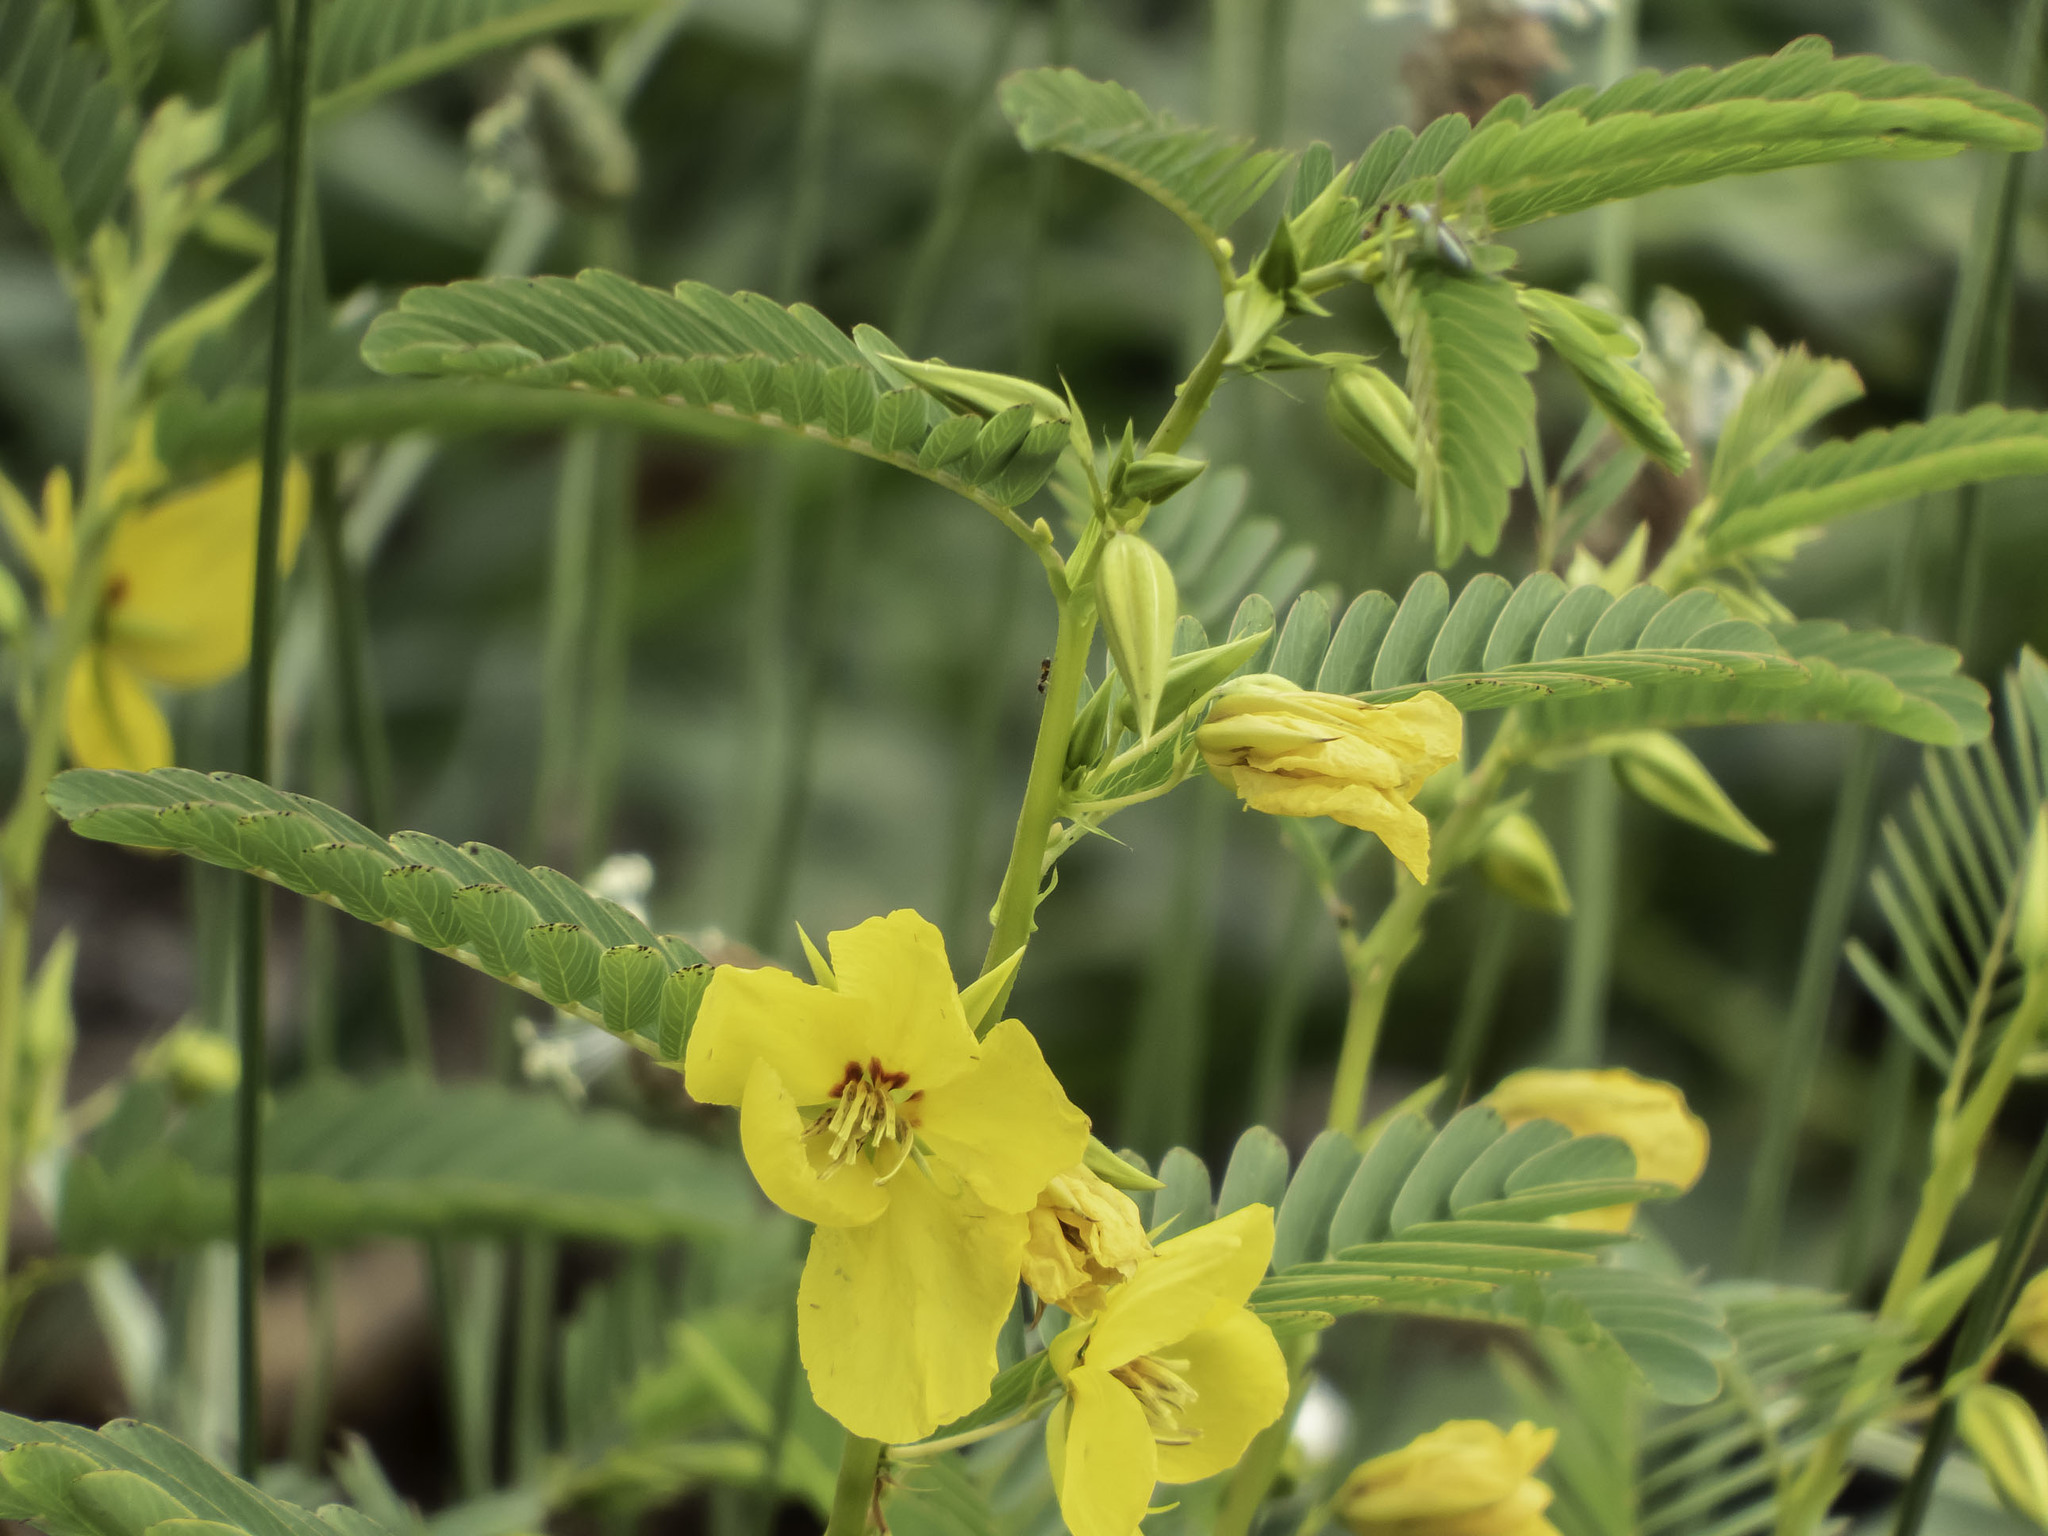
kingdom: Plantae
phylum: Tracheophyta
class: Magnoliopsida
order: Fabales
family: Fabaceae
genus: Chamaecrista
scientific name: Chamaecrista fasciculata
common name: Golden cassia
